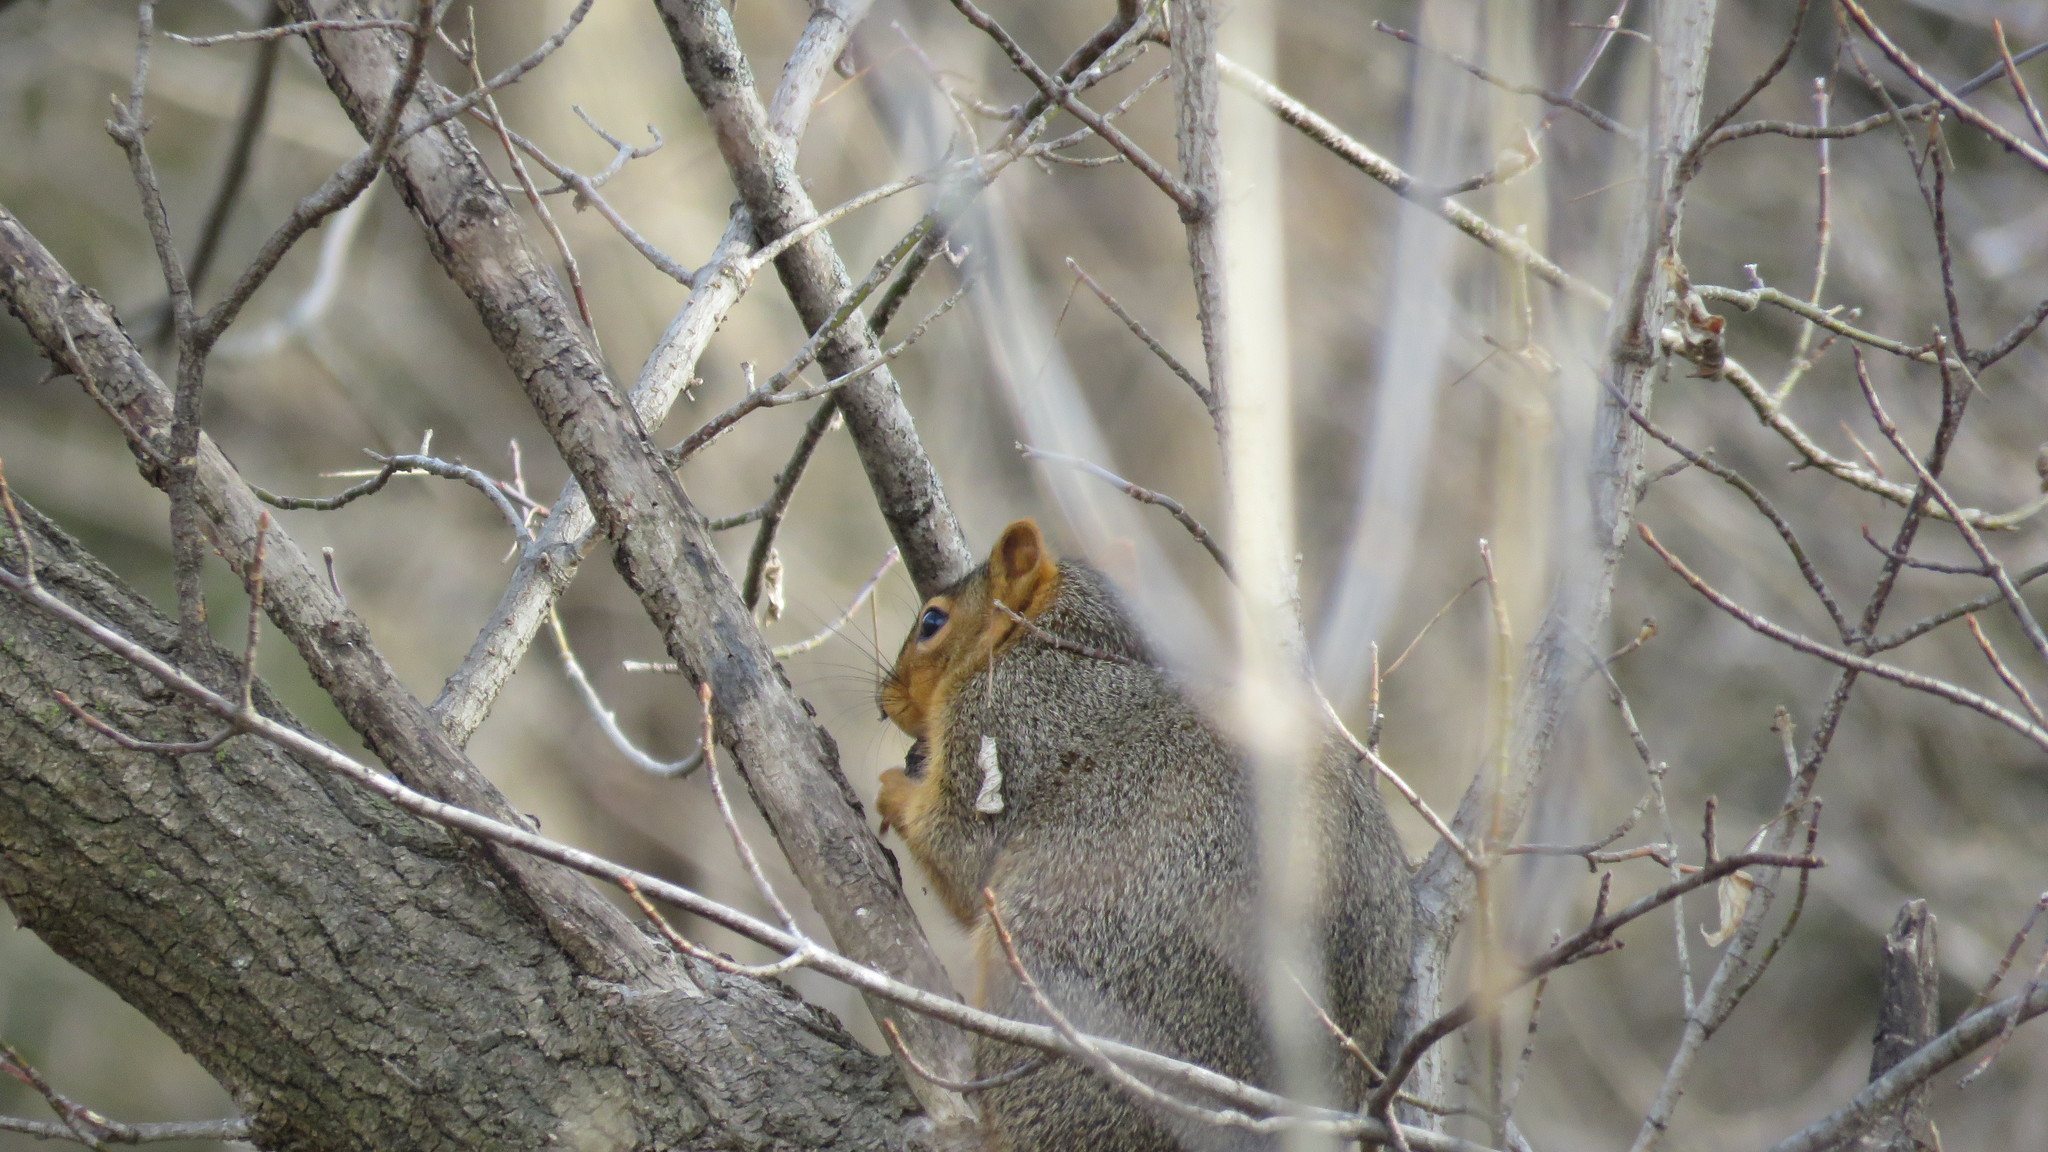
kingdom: Animalia
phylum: Chordata
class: Mammalia
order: Rodentia
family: Sciuridae
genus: Sciurus
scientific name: Sciurus niger
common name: Fox squirrel
